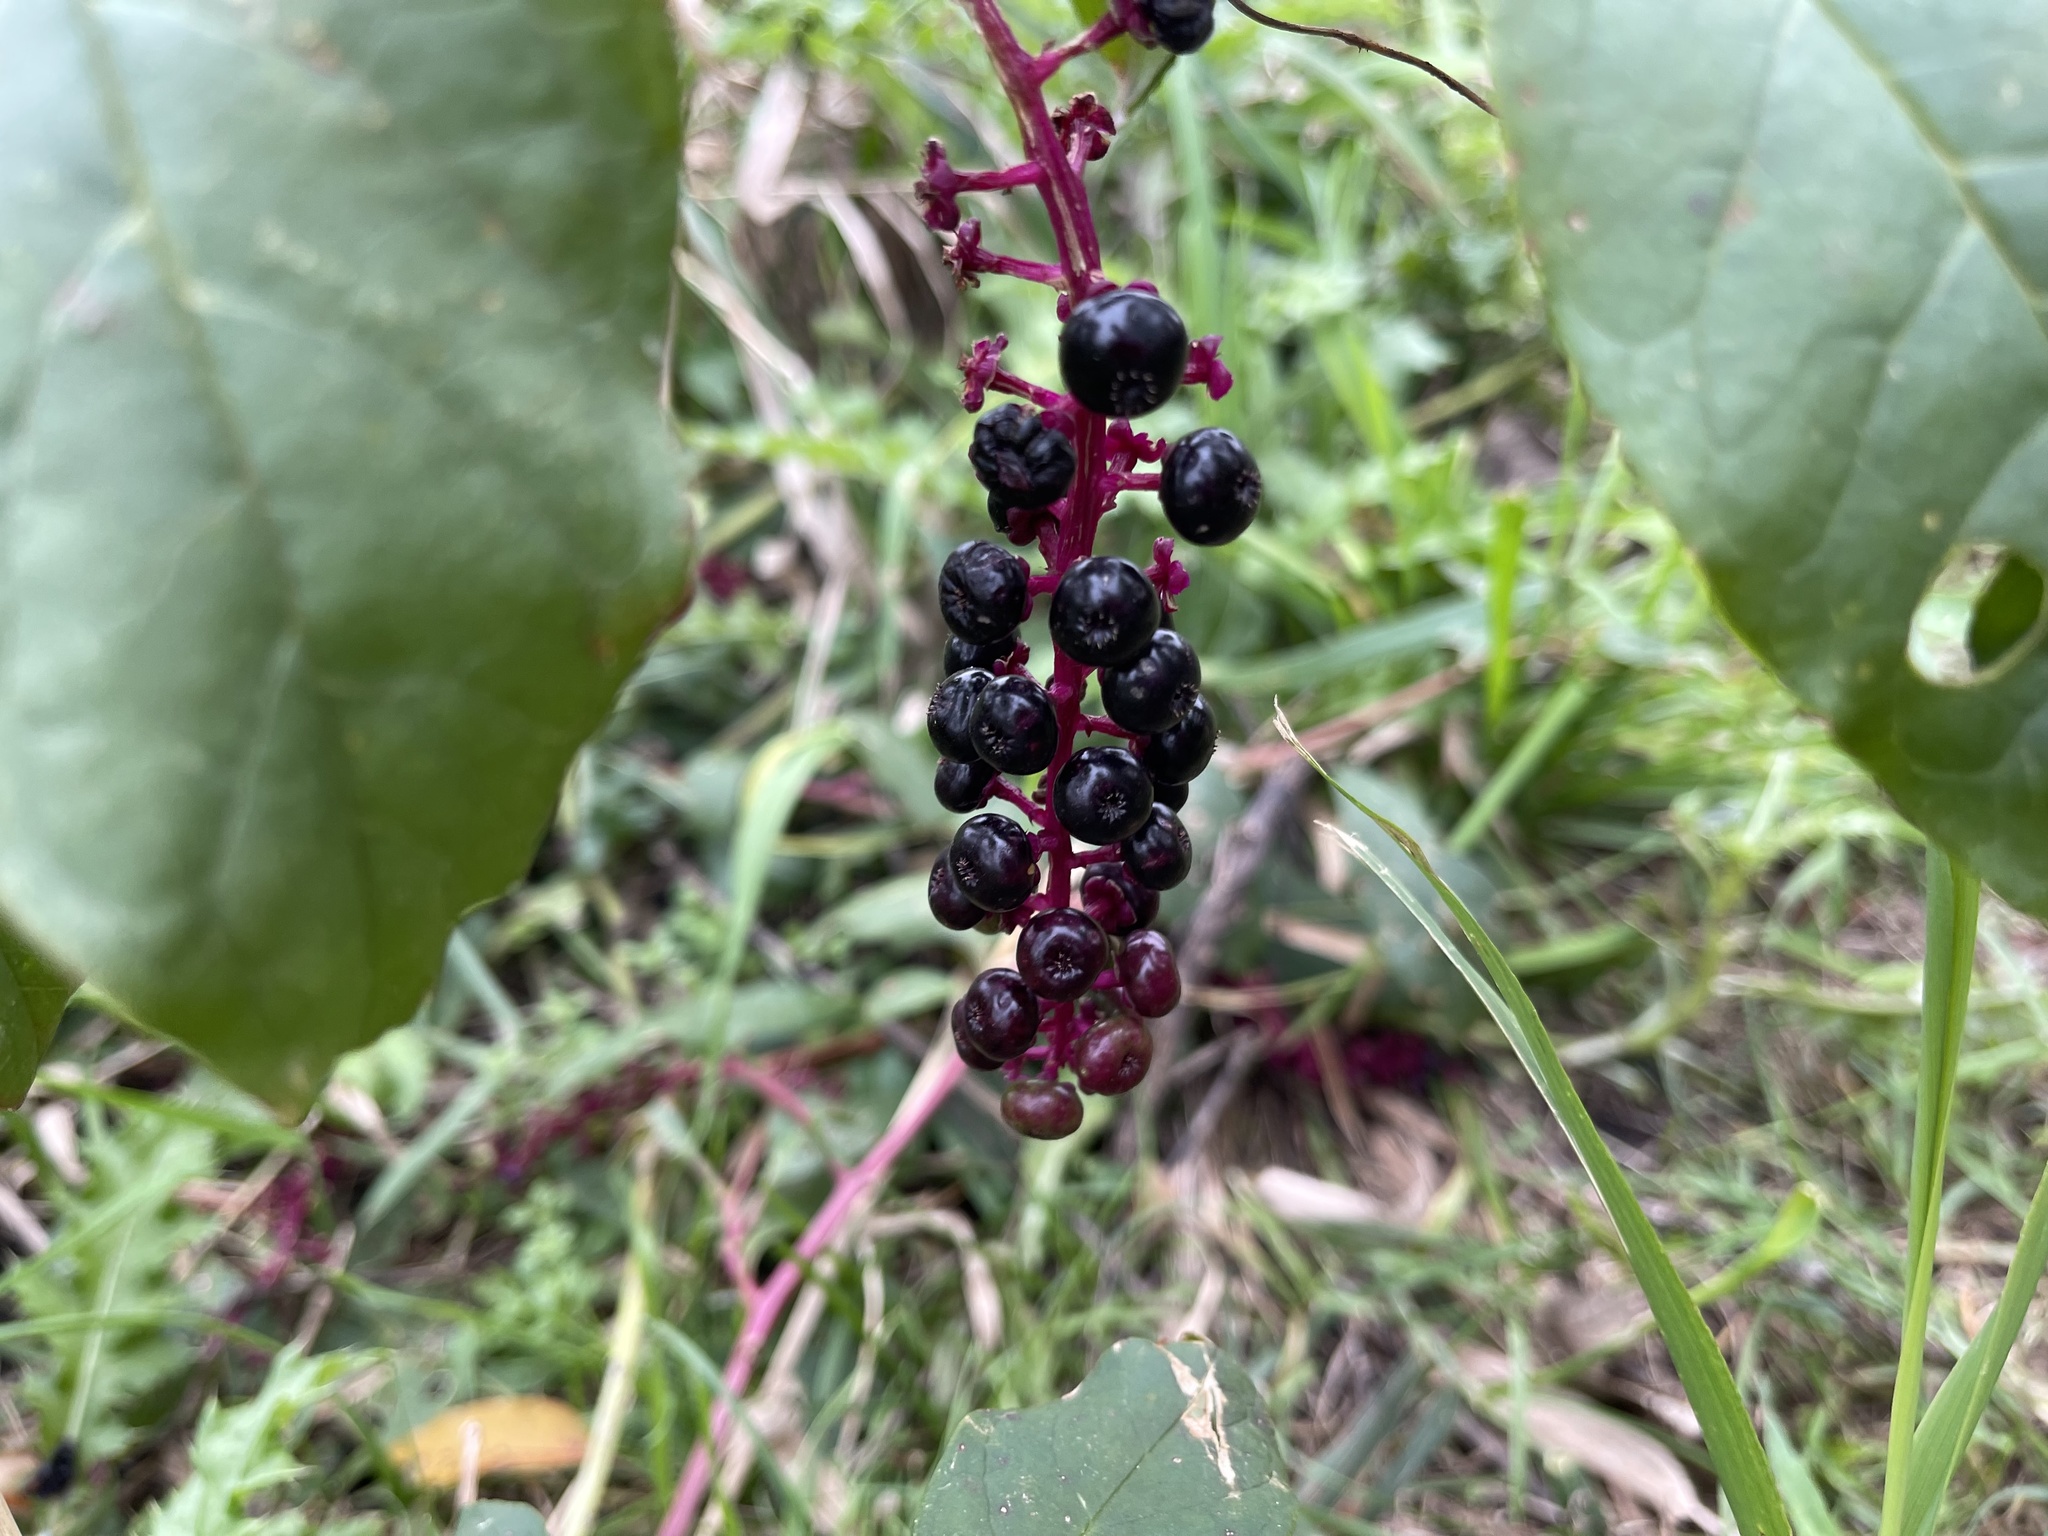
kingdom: Plantae
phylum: Tracheophyta
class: Magnoliopsida
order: Caryophyllales
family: Phytolaccaceae
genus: Phytolacca
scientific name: Phytolacca americana
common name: American pokeweed
